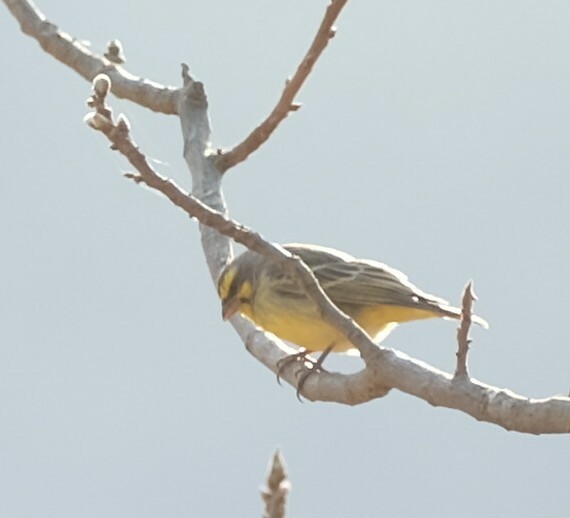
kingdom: Animalia
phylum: Chordata
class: Aves
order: Passeriformes
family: Fringillidae
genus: Crithagra
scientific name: Crithagra mozambica
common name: Yellow-fronted canary
